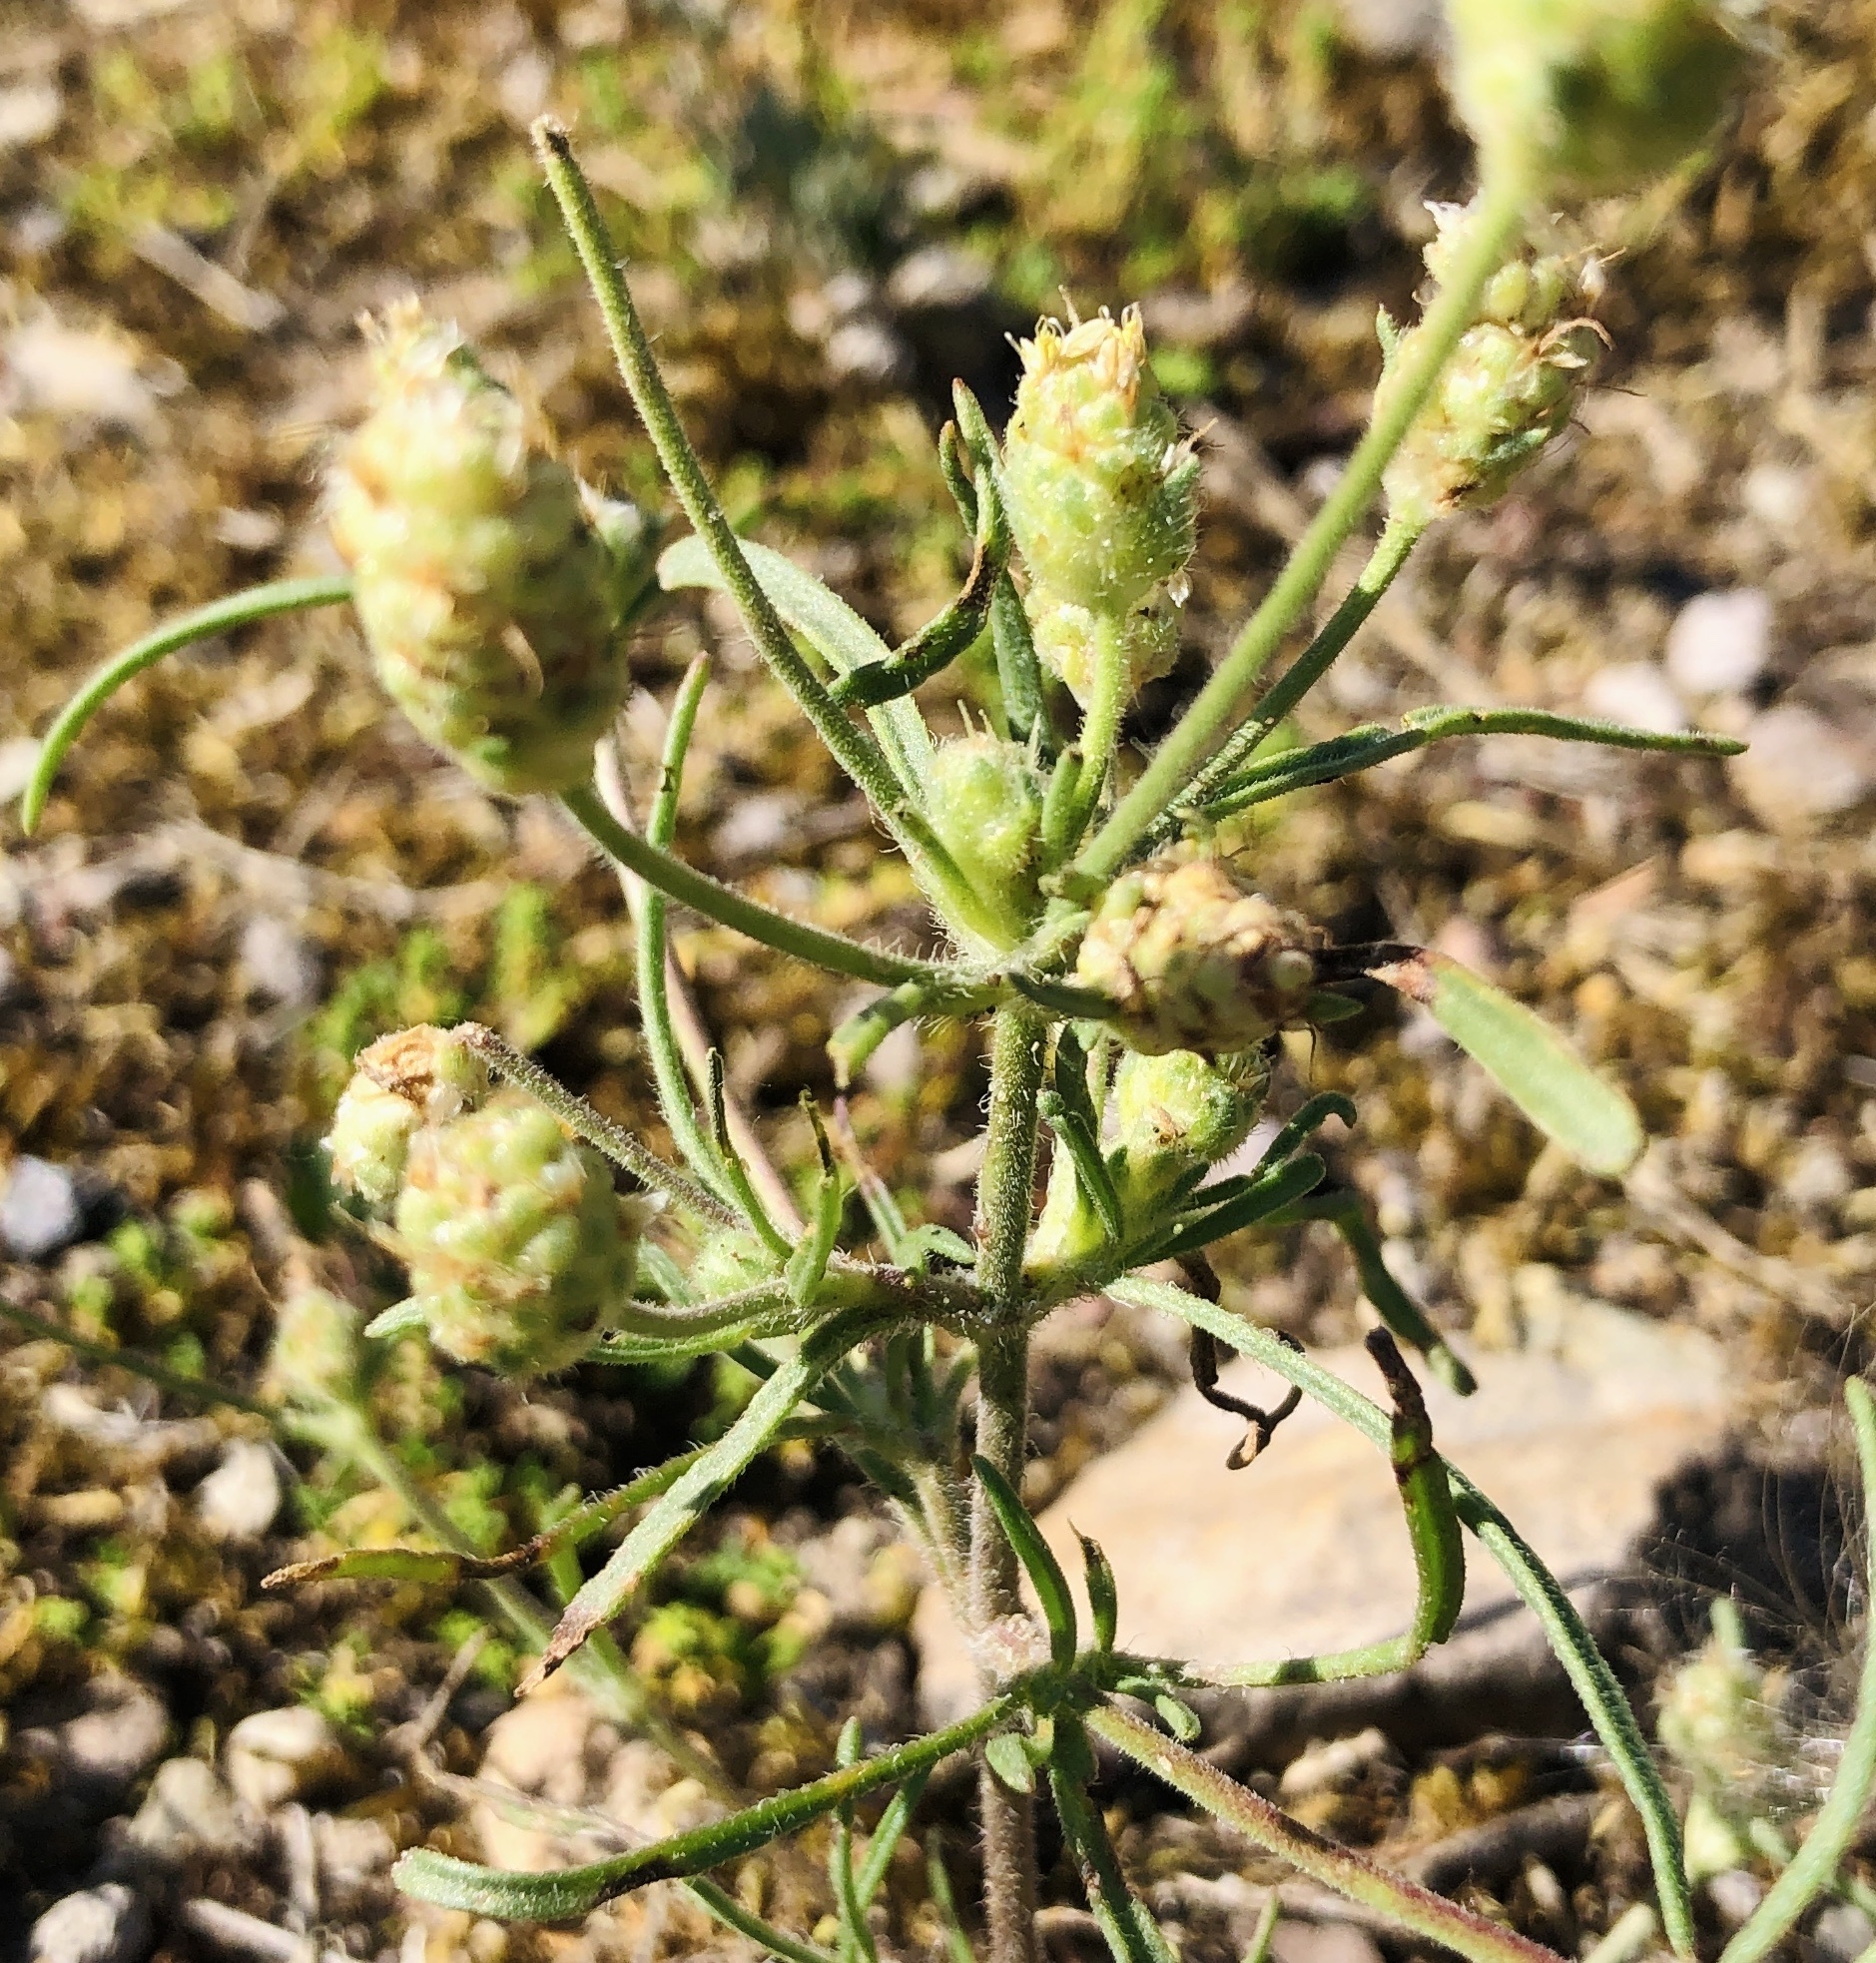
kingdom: Plantae
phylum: Tracheophyta
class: Magnoliopsida
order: Lamiales
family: Plantaginaceae
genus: Plantago
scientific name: Plantago arenaria
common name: Branched plantain
